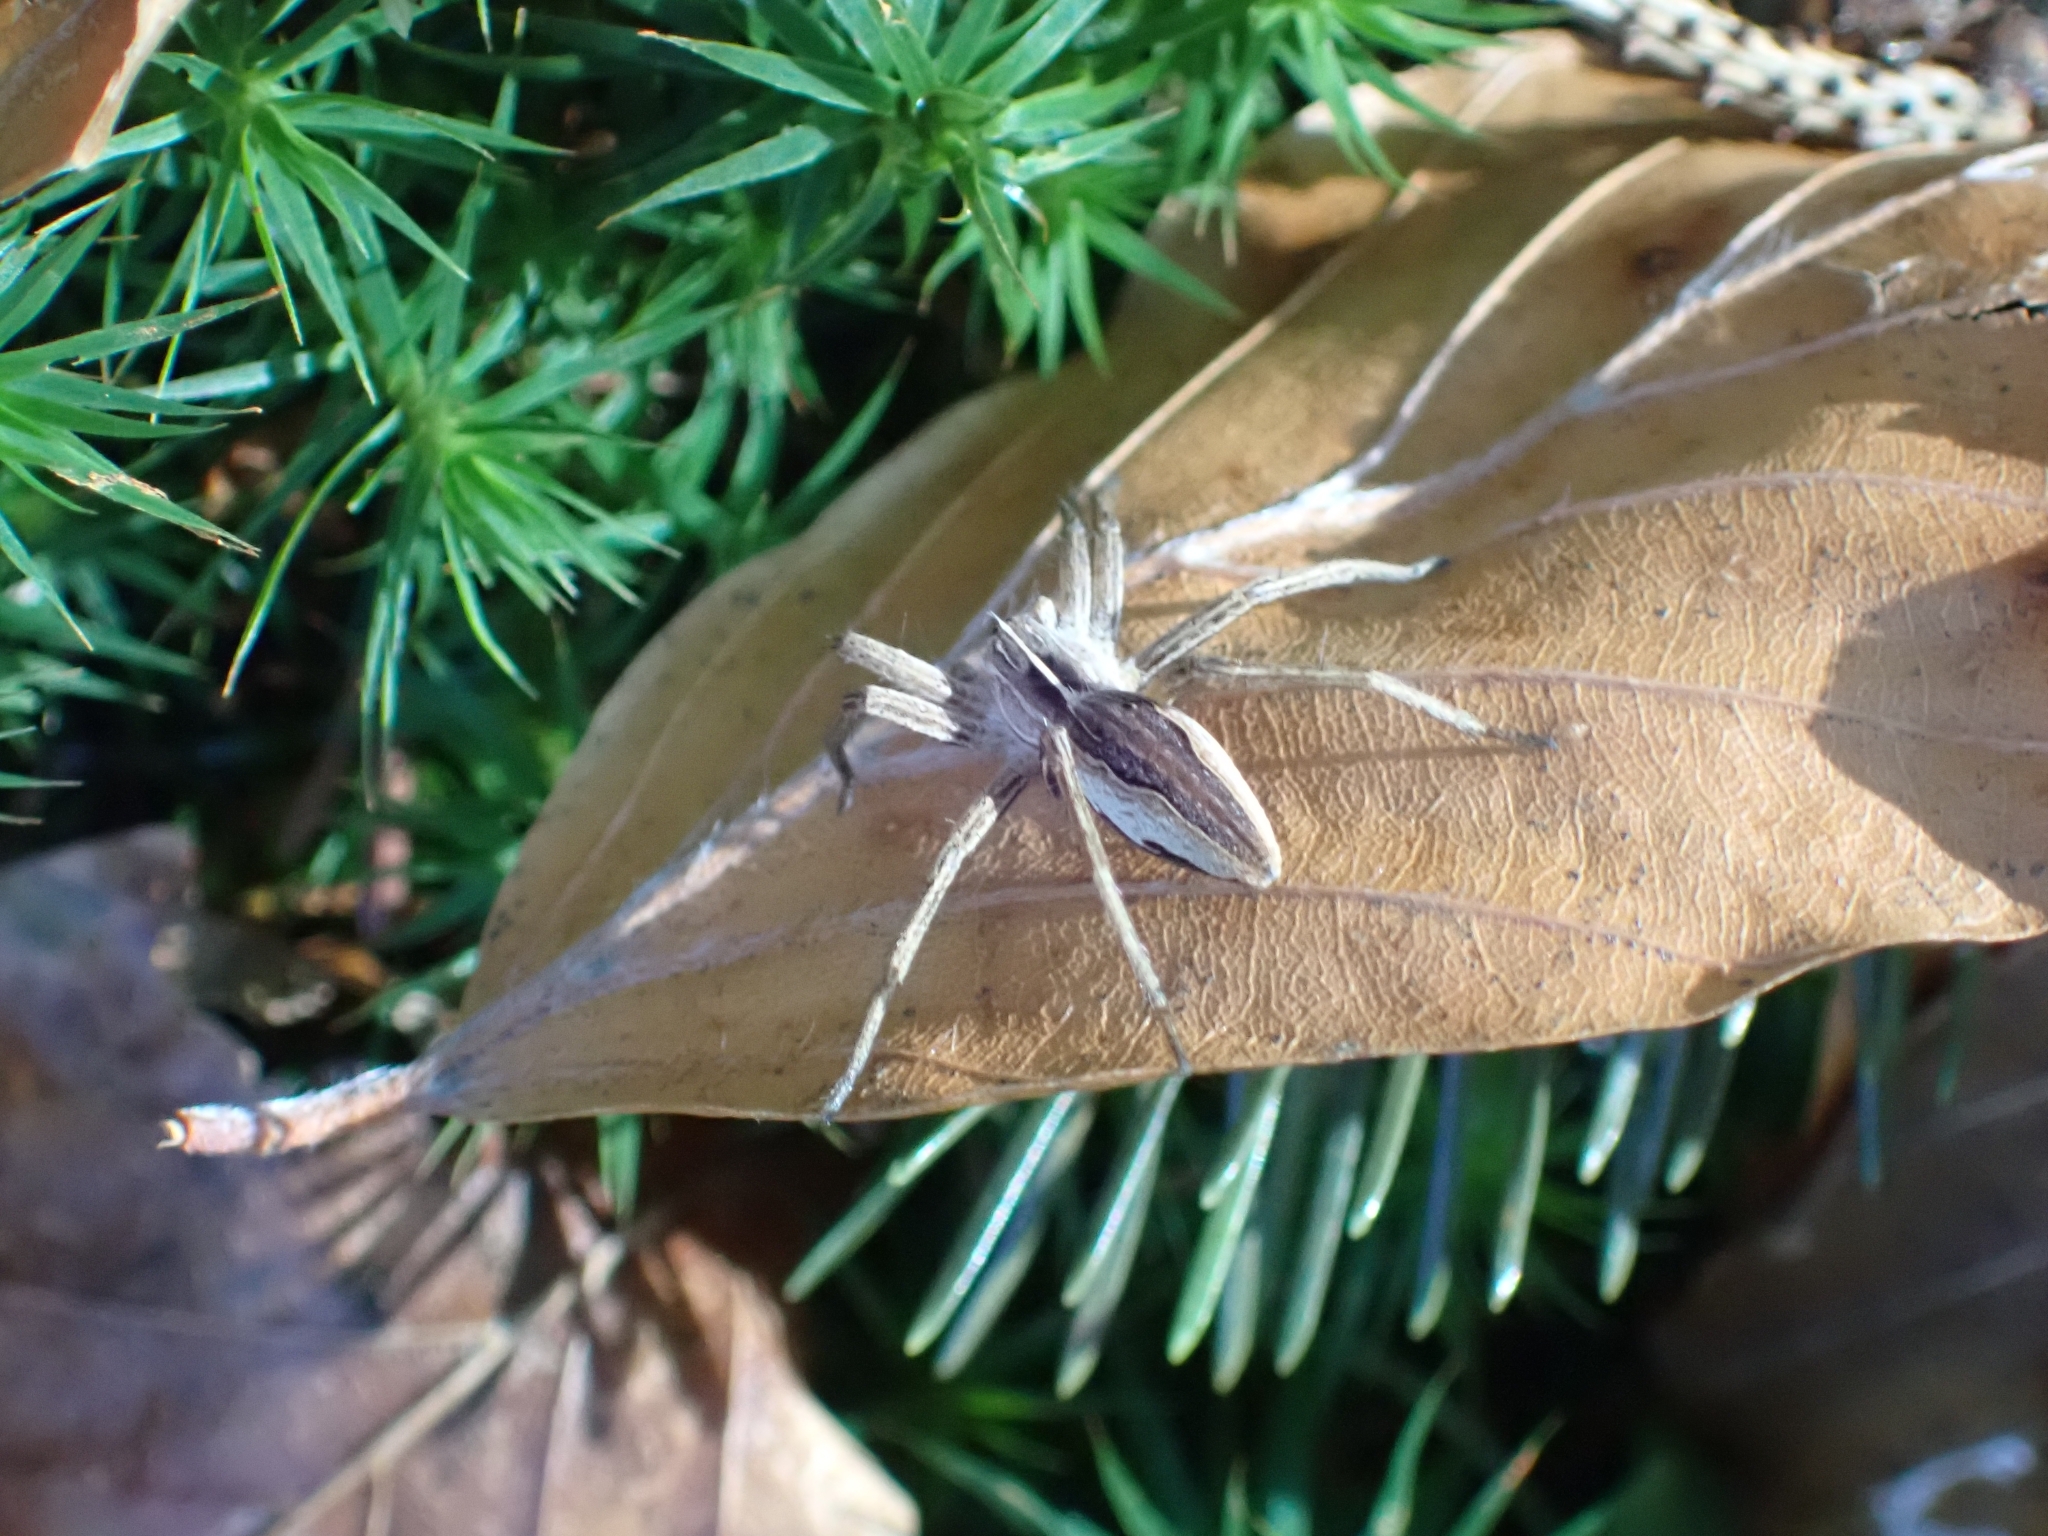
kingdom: Animalia
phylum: Arthropoda
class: Arachnida
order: Araneae
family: Pisauridae
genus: Pisaura
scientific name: Pisaura mirabilis
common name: Tent spider
